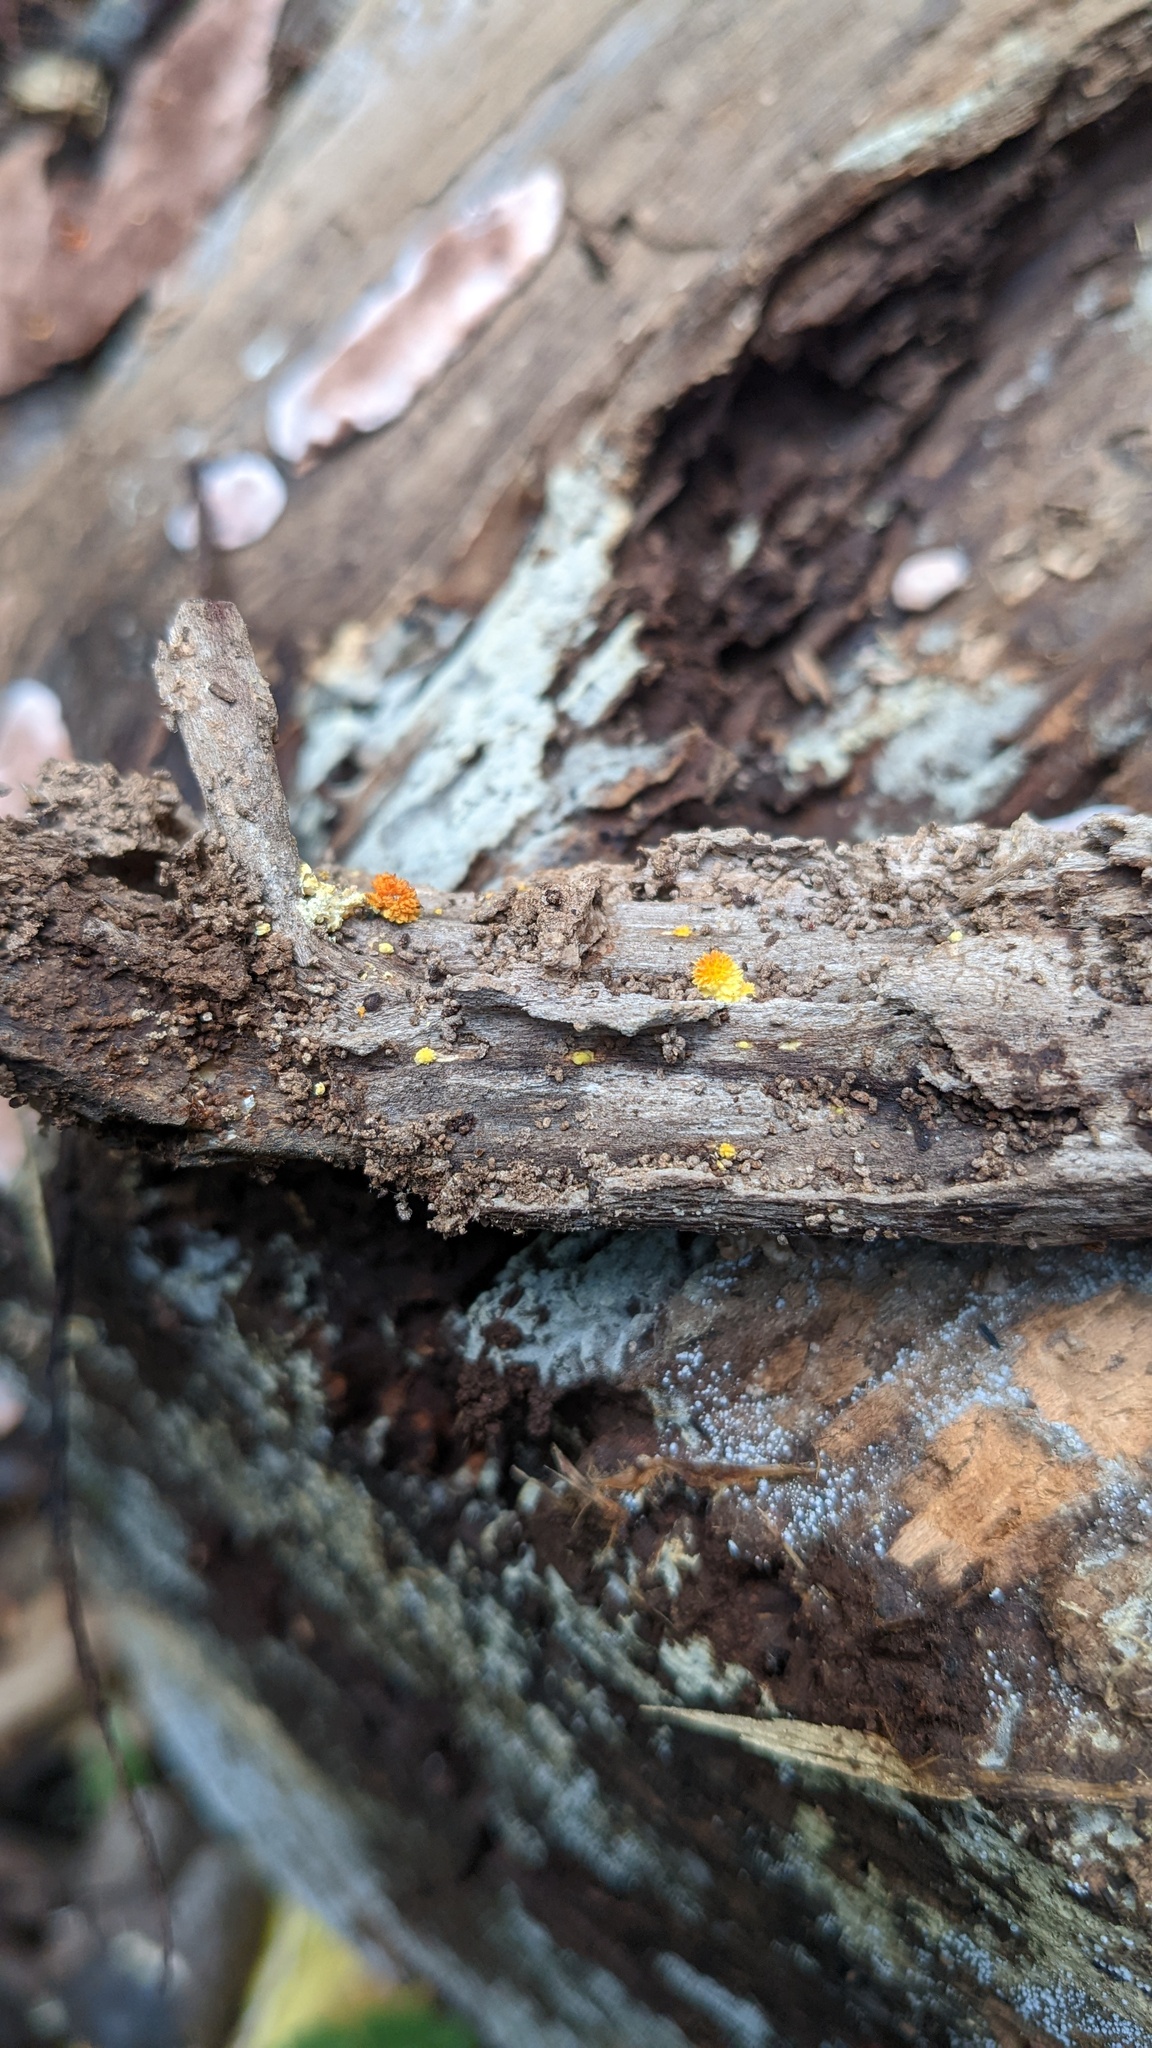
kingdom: Fungi
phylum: Basidiomycota
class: Agaricomycetes
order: Agaricales
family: Physalacriaceae
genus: Cyptotrama
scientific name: Cyptotrama asprata
